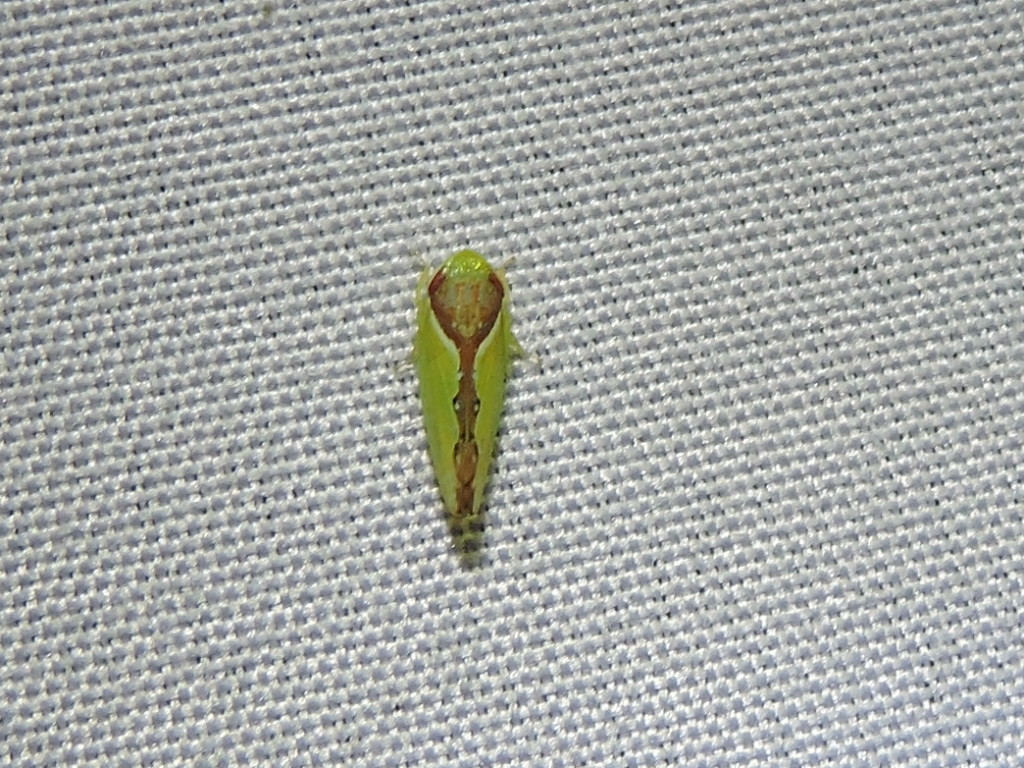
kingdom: Animalia
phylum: Arthropoda
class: Insecta
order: Hemiptera
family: Cicadellidae
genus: Omansobara ing
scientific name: Omansobara ing Omansobara palliolata
